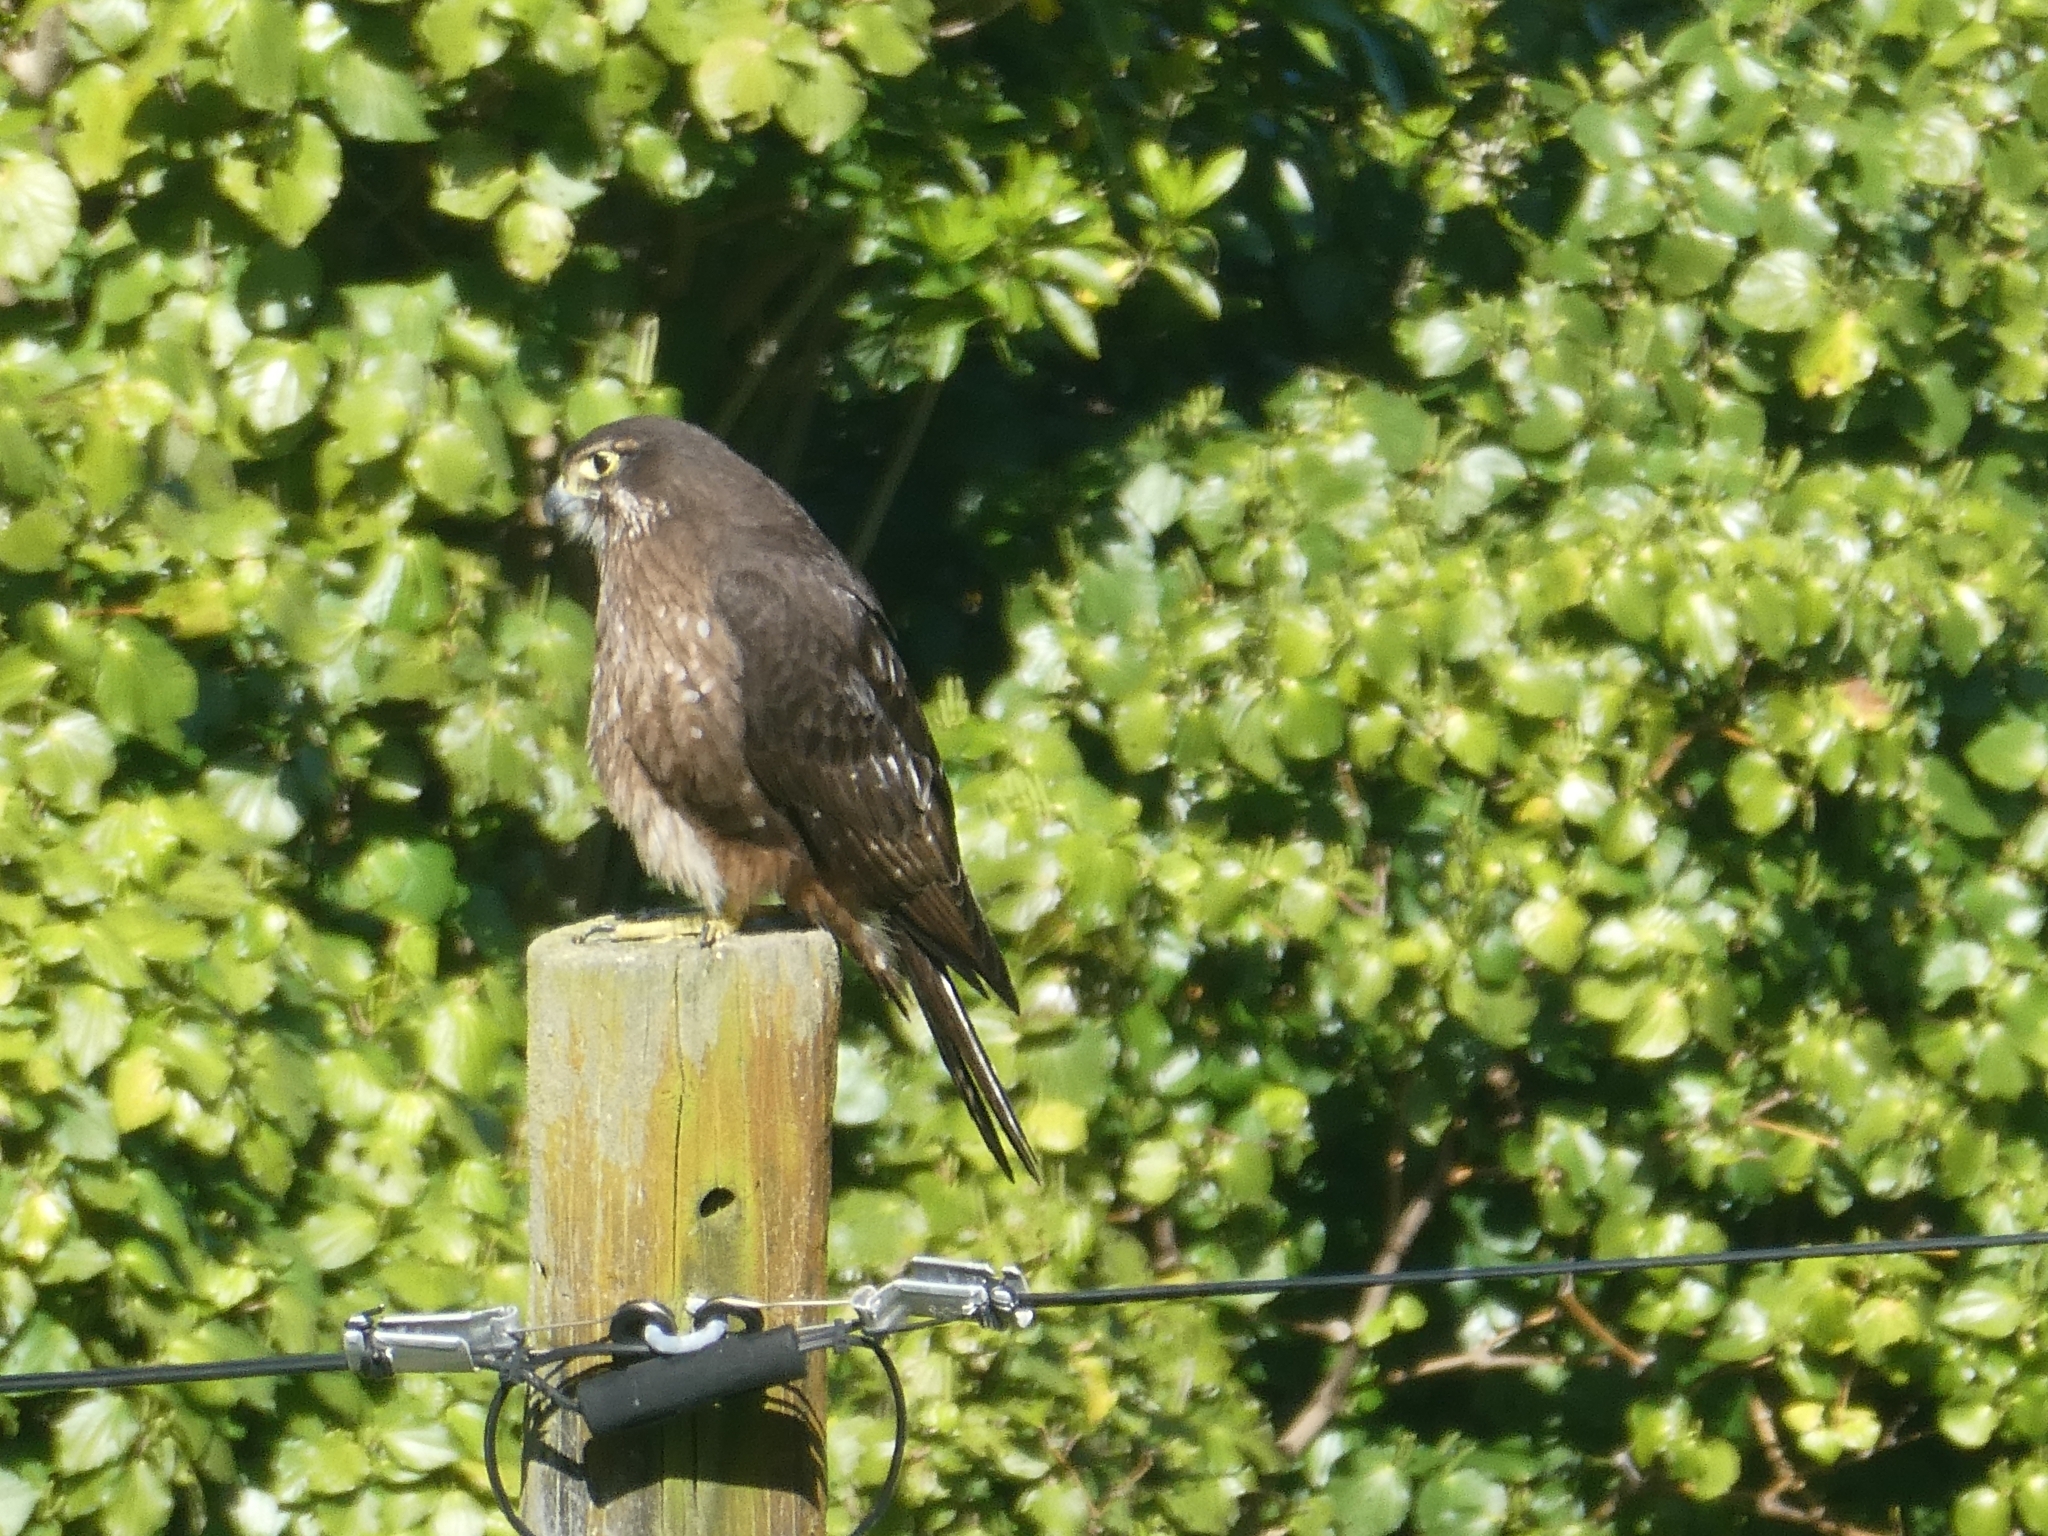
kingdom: Animalia
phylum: Chordata
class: Aves
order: Falconiformes
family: Falconidae
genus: Falco
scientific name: Falco novaeseelandiae
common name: New zealand falcon
